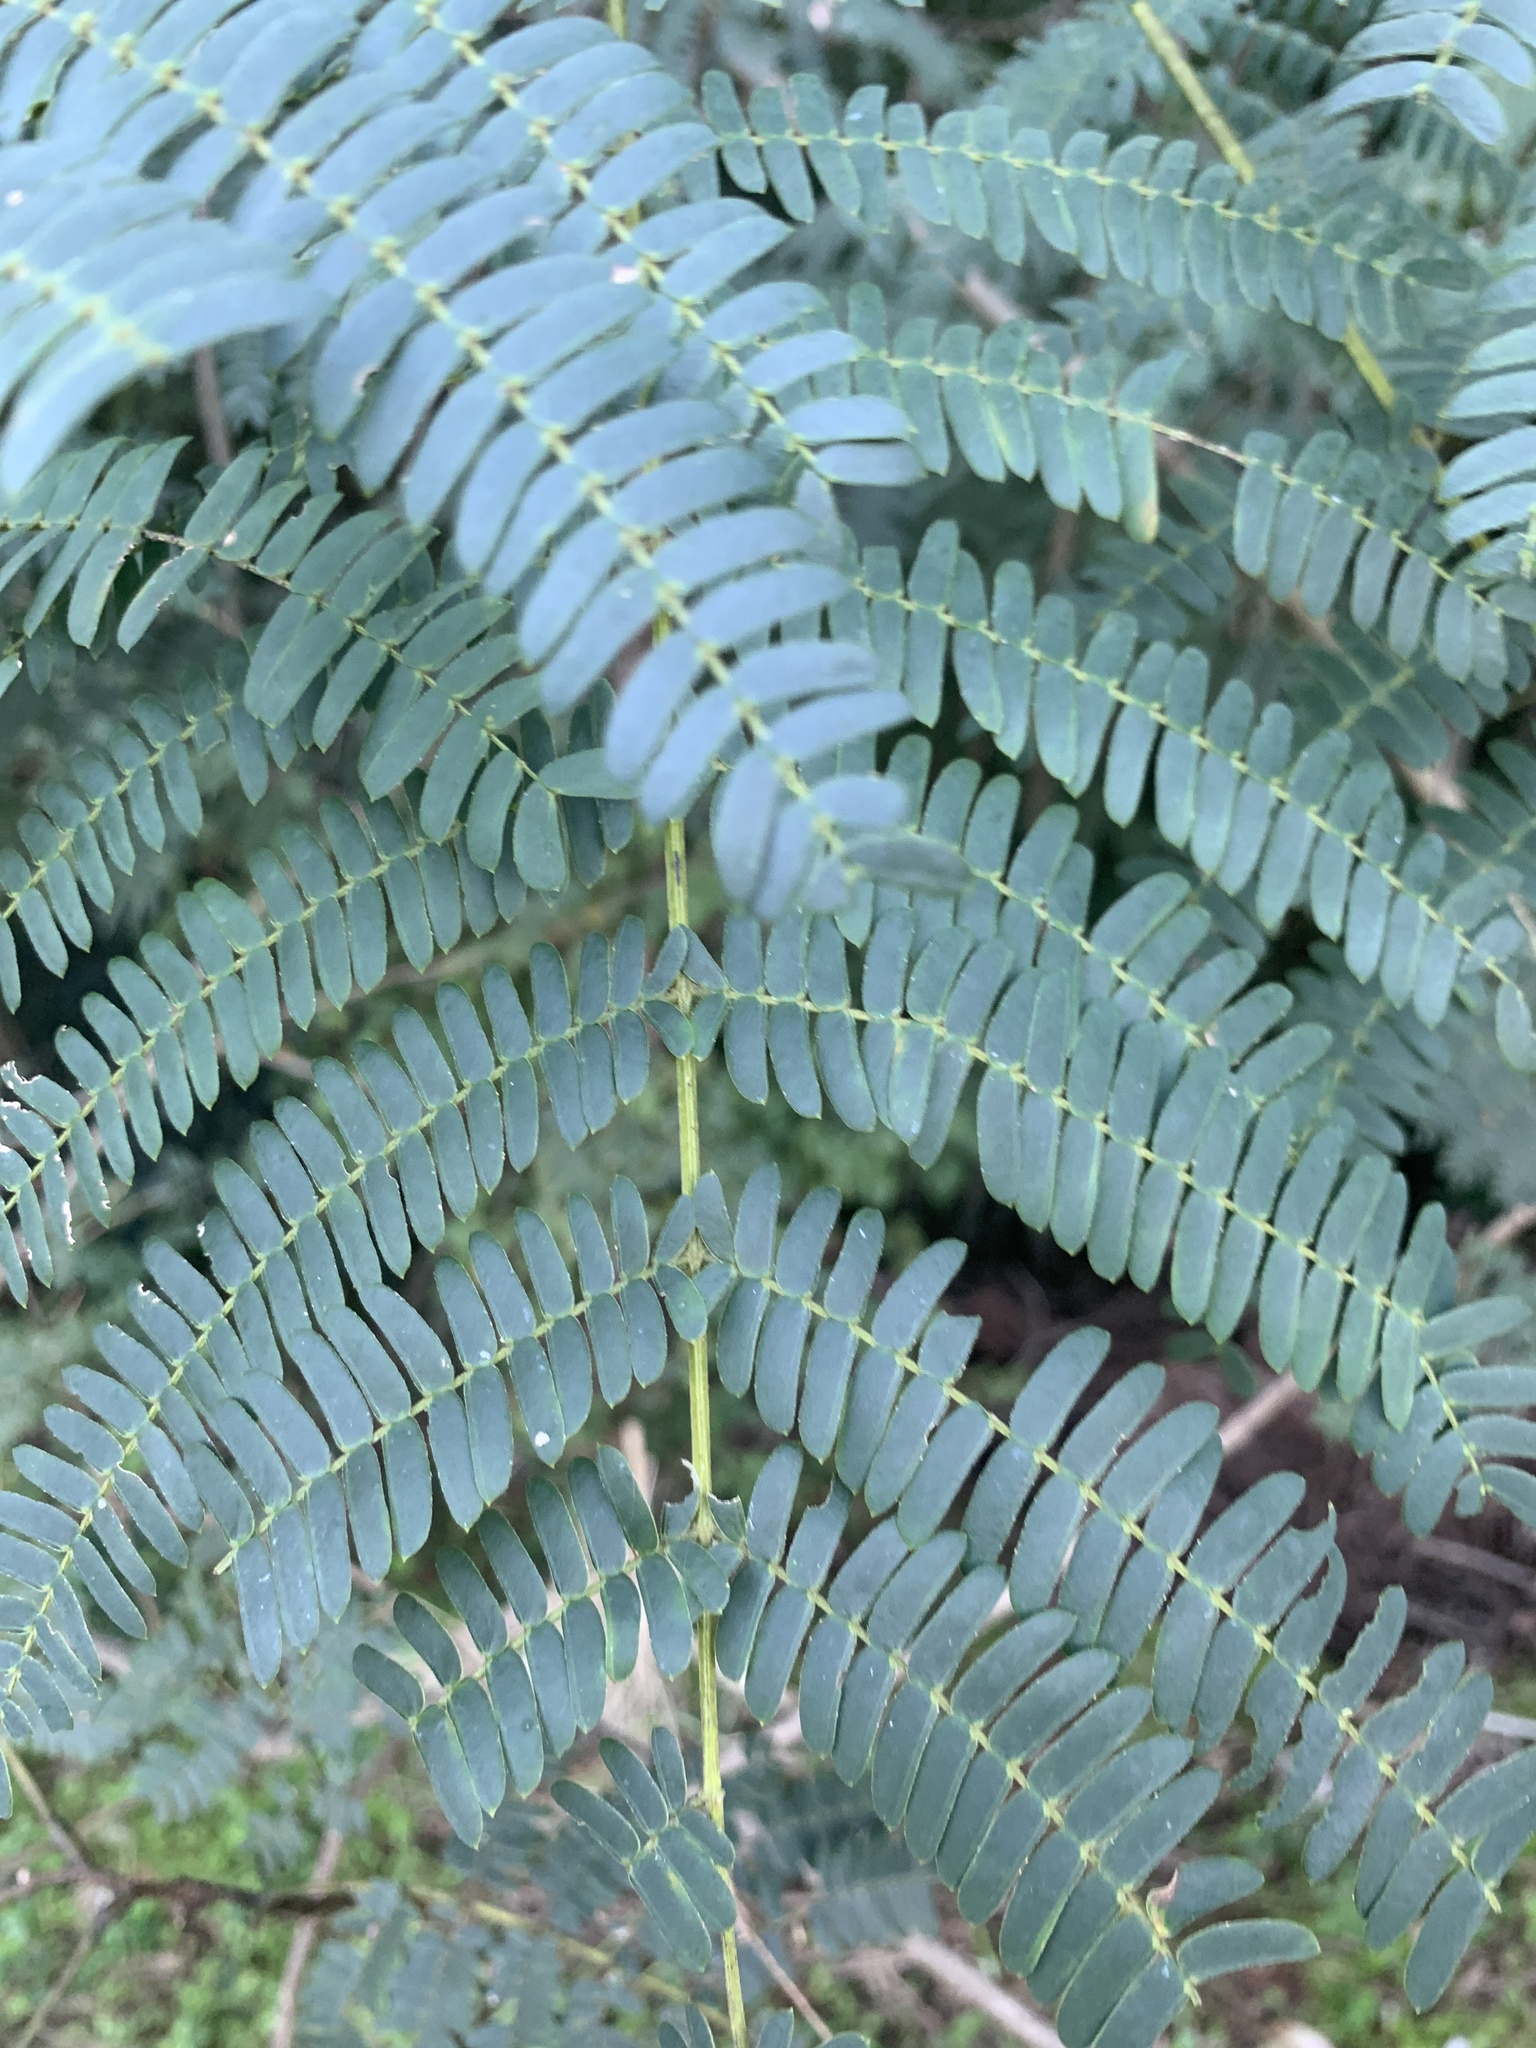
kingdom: Plantae
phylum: Tracheophyta
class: Magnoliopsida
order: Fabales
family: Fabaceae
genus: Albizia
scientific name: Albizia julibrissin
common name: Silktree
